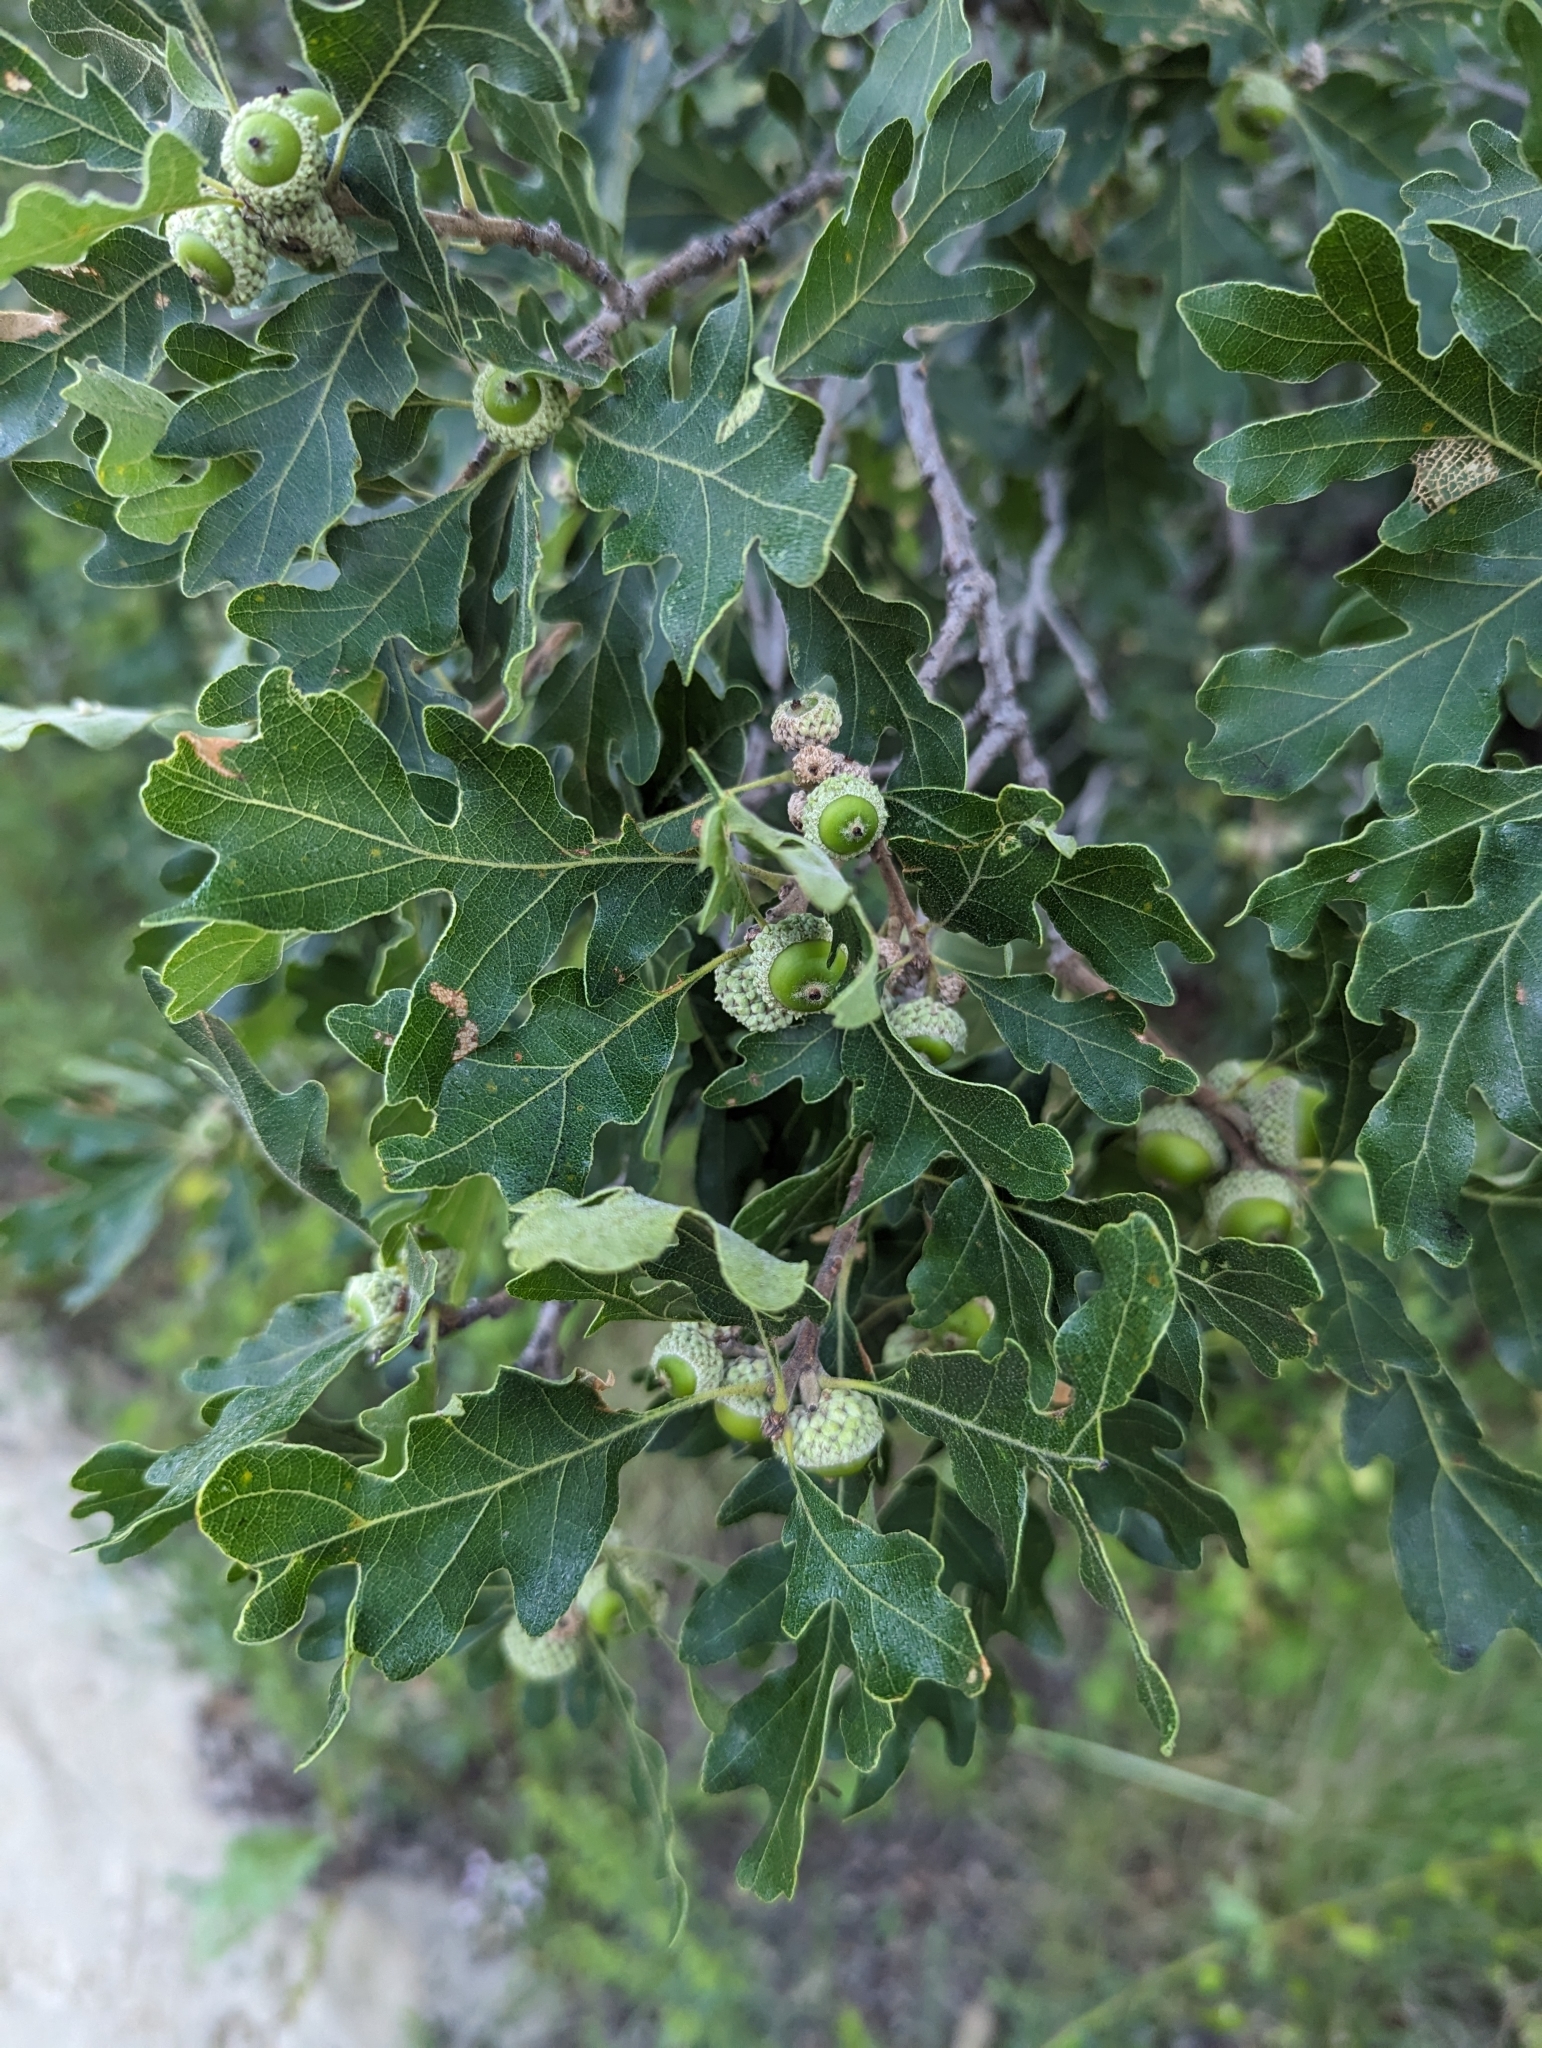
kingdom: Plantae
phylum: Tracheophyta
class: Magnoliopsida
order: Fagales
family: Fagaceae
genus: Quercus
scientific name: Quercus gambelii
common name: Gambel oak
